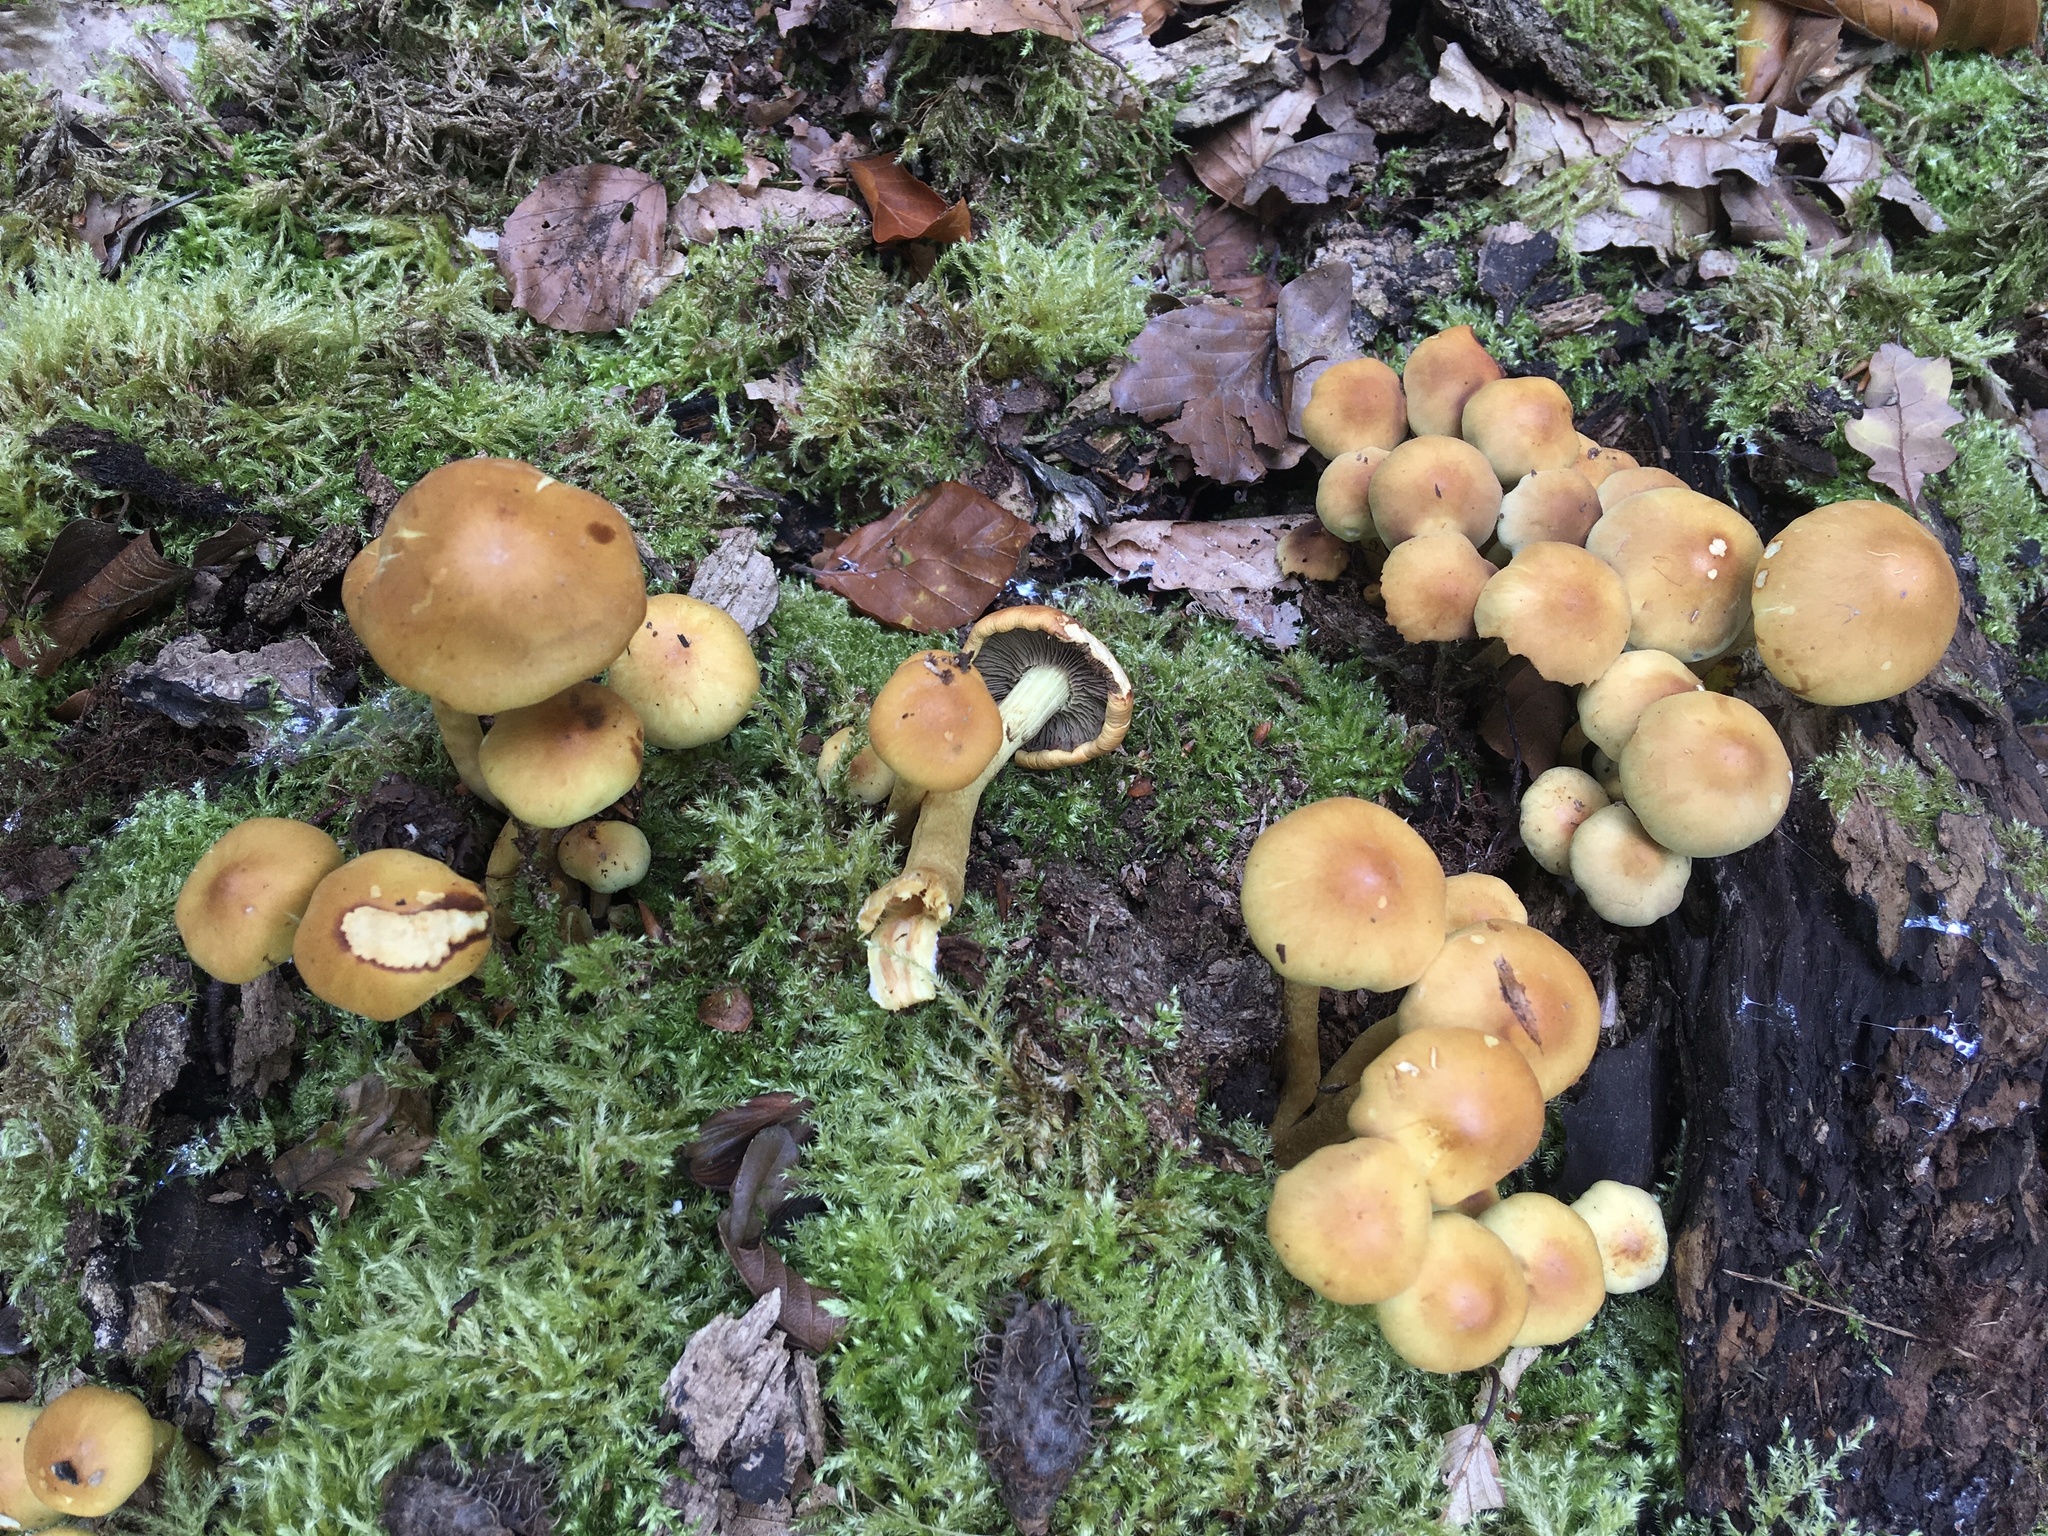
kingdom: Fungi
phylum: Basidiomycota
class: Agaricomycetes
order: Agaricales
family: Strophariaceae
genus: Hypholoma
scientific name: Hypholoma fasciculare
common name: Sulphur tuft
